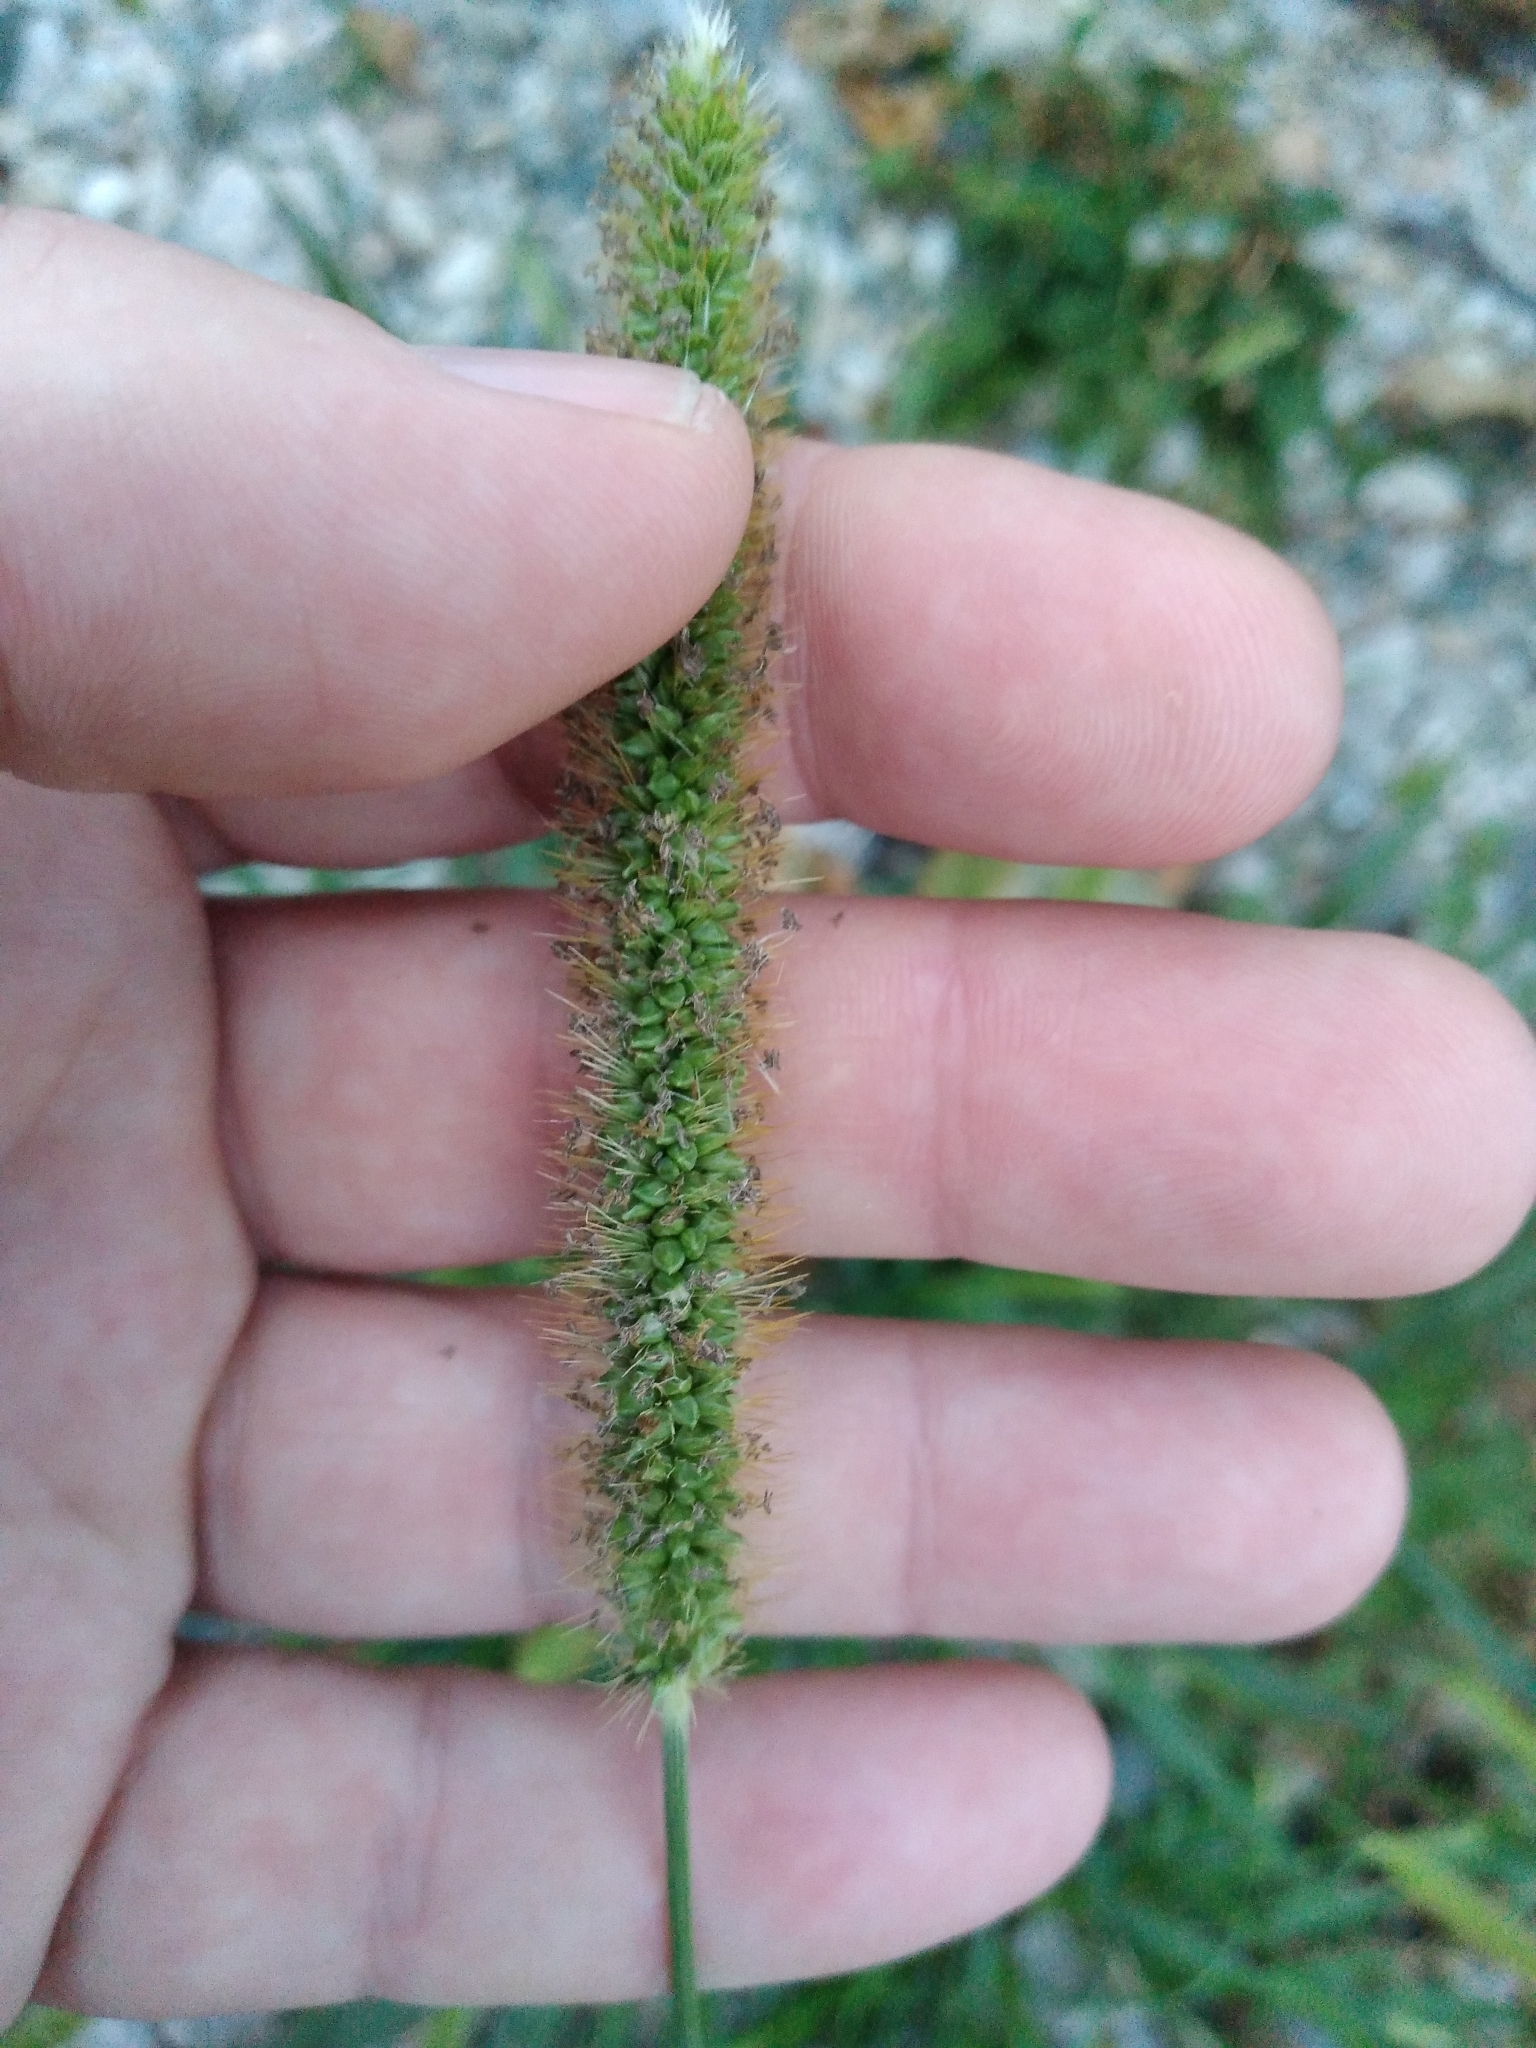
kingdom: Plantae
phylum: Tracheophyta
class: Liliopsida
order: Poales
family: Poaceae
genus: Setaria
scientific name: Setaria pumila
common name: Yellow bristle-grass
